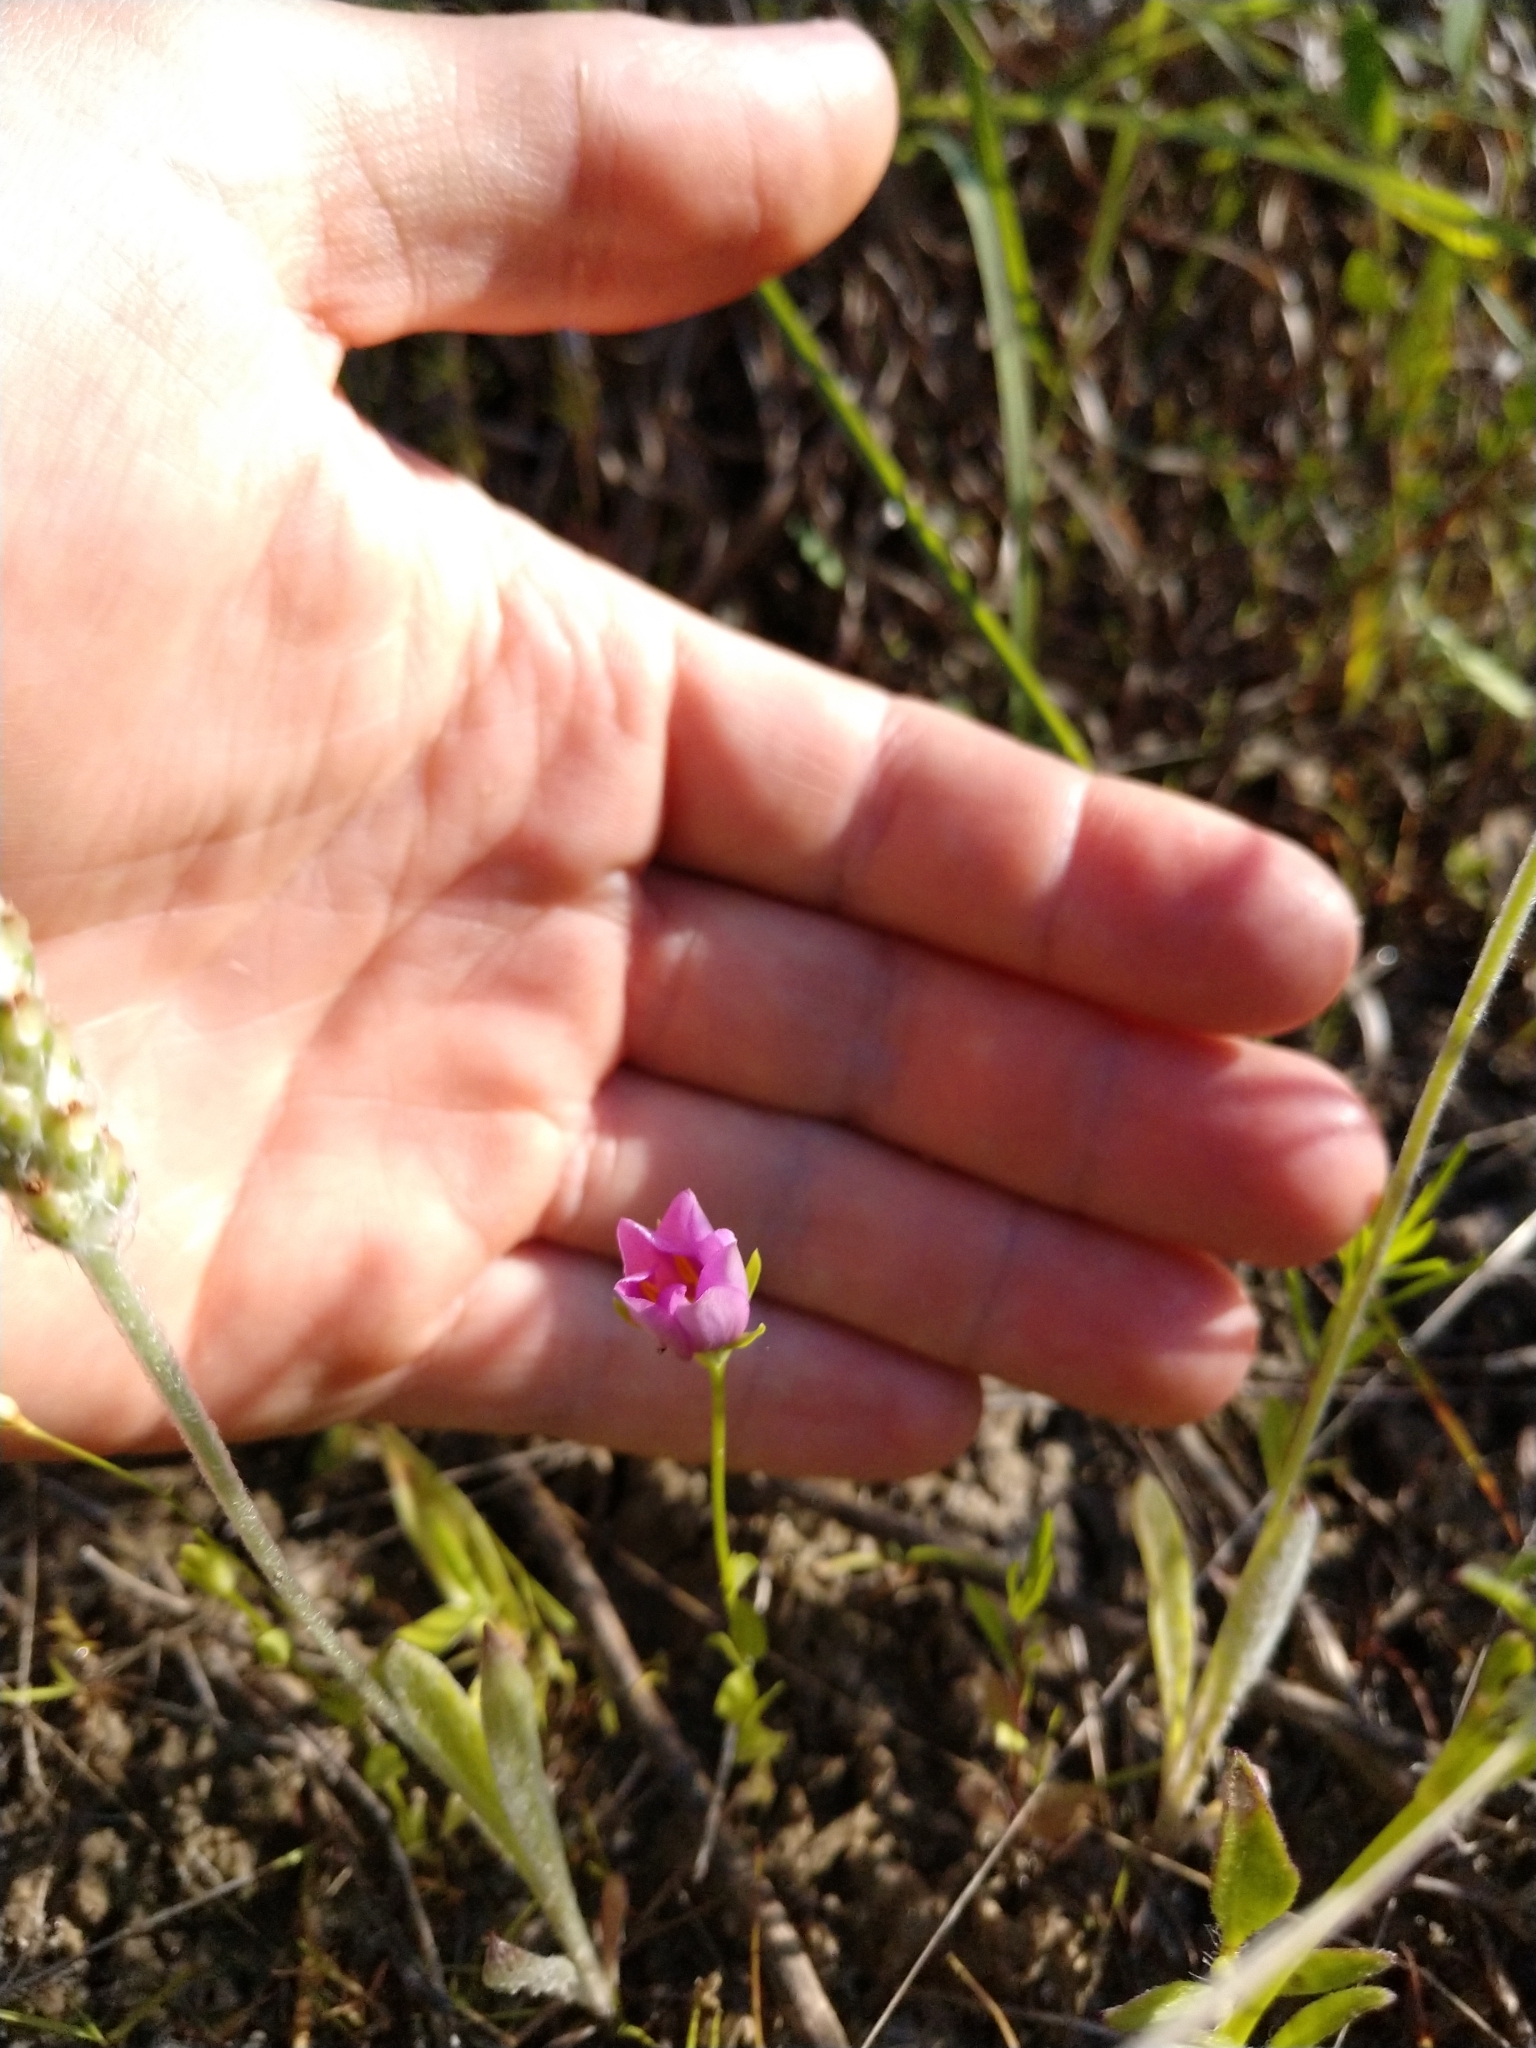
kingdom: Plantae
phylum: Tracheophyta
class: Magnoliopsida
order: Gentianales
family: Gentianaceae
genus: Sabatia
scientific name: Sabatia campestris
